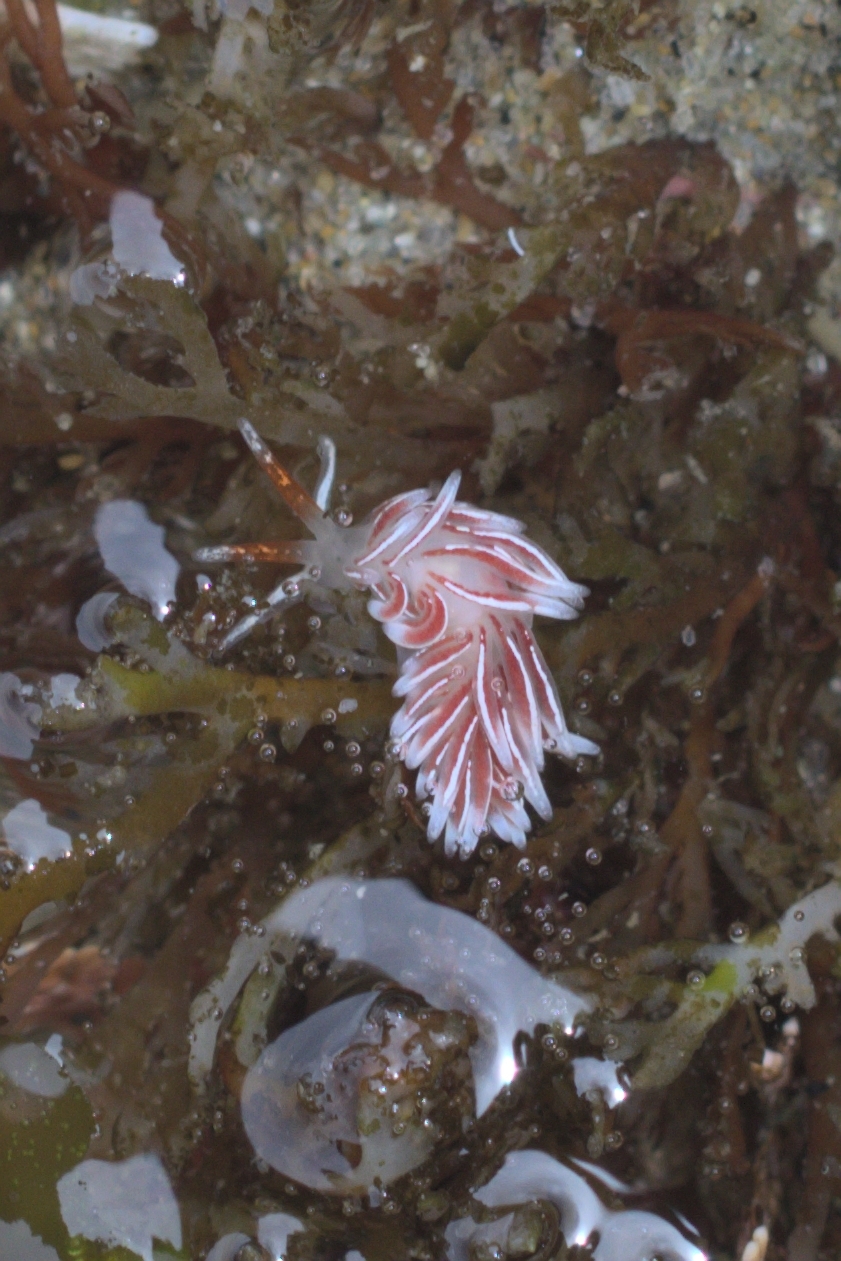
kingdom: Animalia
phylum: Mollusca
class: Gastropoda
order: Nudibranchia
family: Trinchesiidae
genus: Catriona
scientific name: Catriona columbiana
